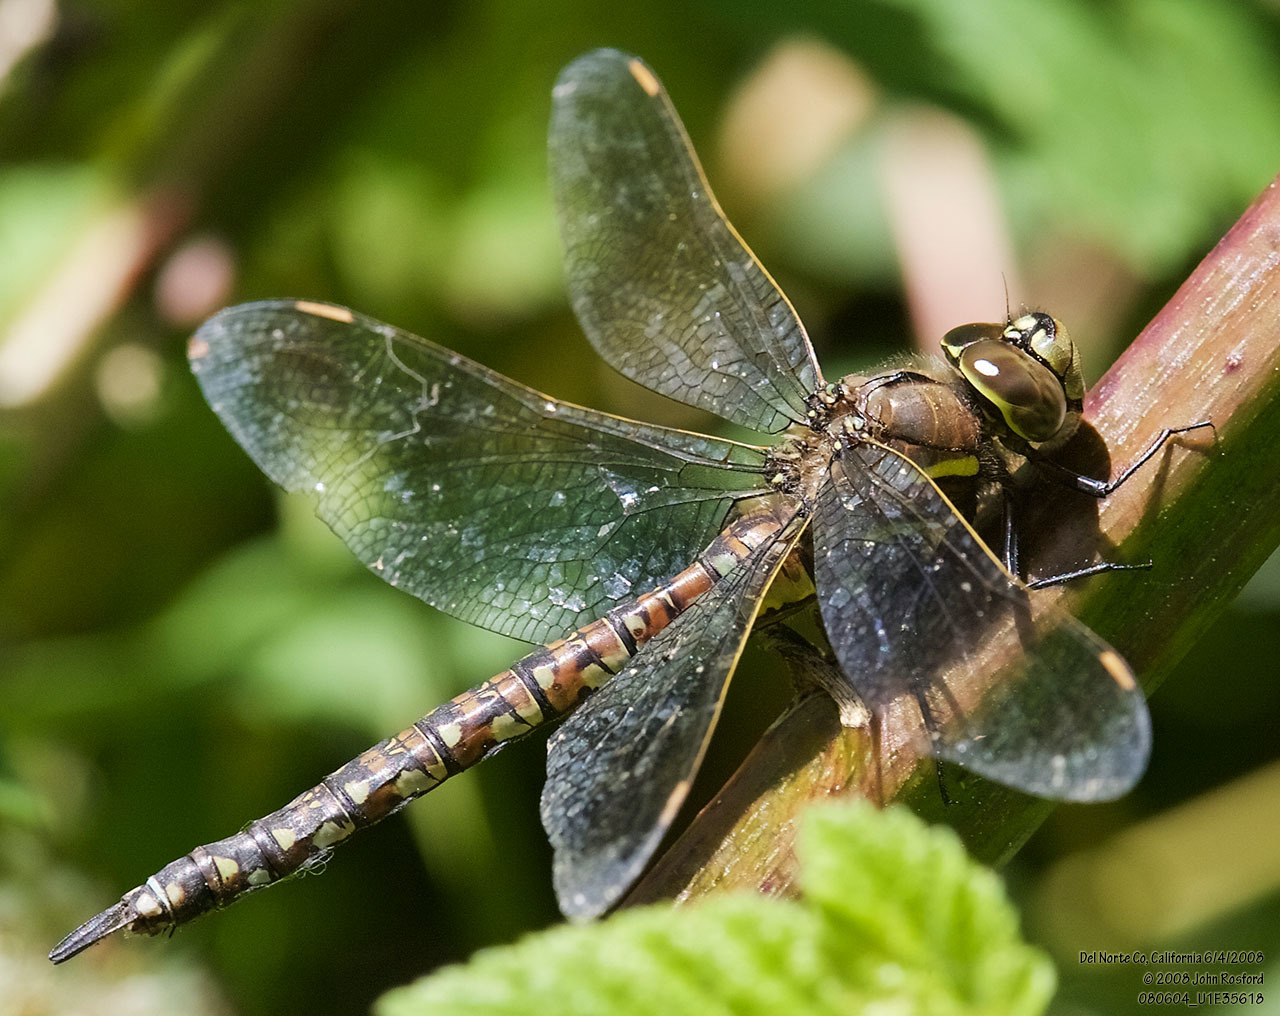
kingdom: Animalia
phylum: Arthropoda
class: Insecta
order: Odonata
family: Aeshnidae
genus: Rhionaeschna
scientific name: Rhionaeschna californica
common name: California darner
